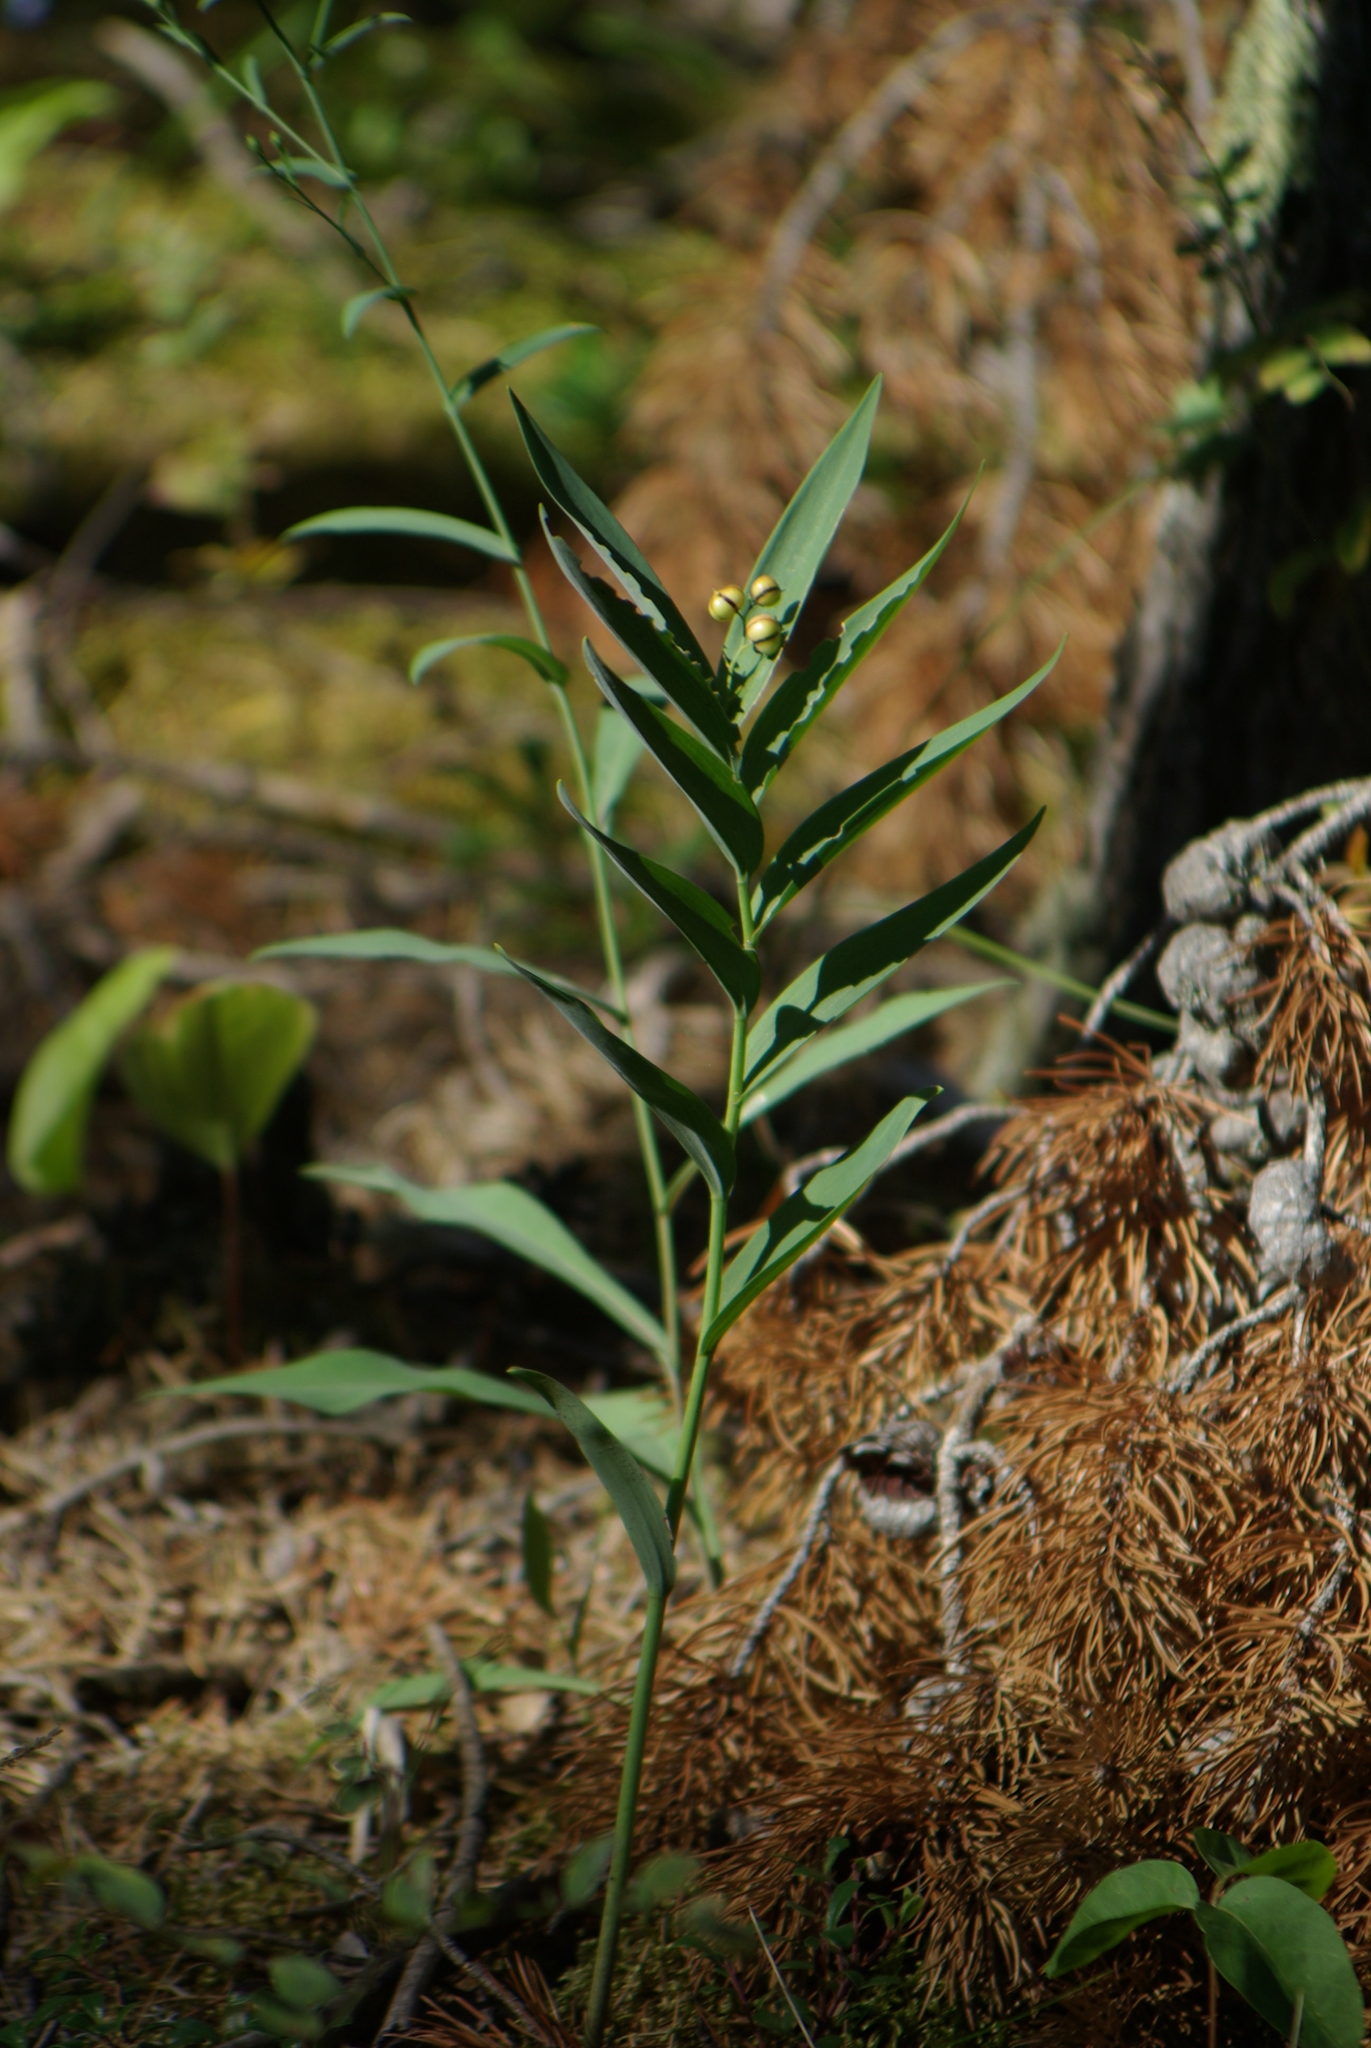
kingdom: Plantae
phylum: Tracheophyta
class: Liliopsida
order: Asparagales
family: Asparagaceae
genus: Maianthemum
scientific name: Maianthemum stellatum
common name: Little false solomon's seal
